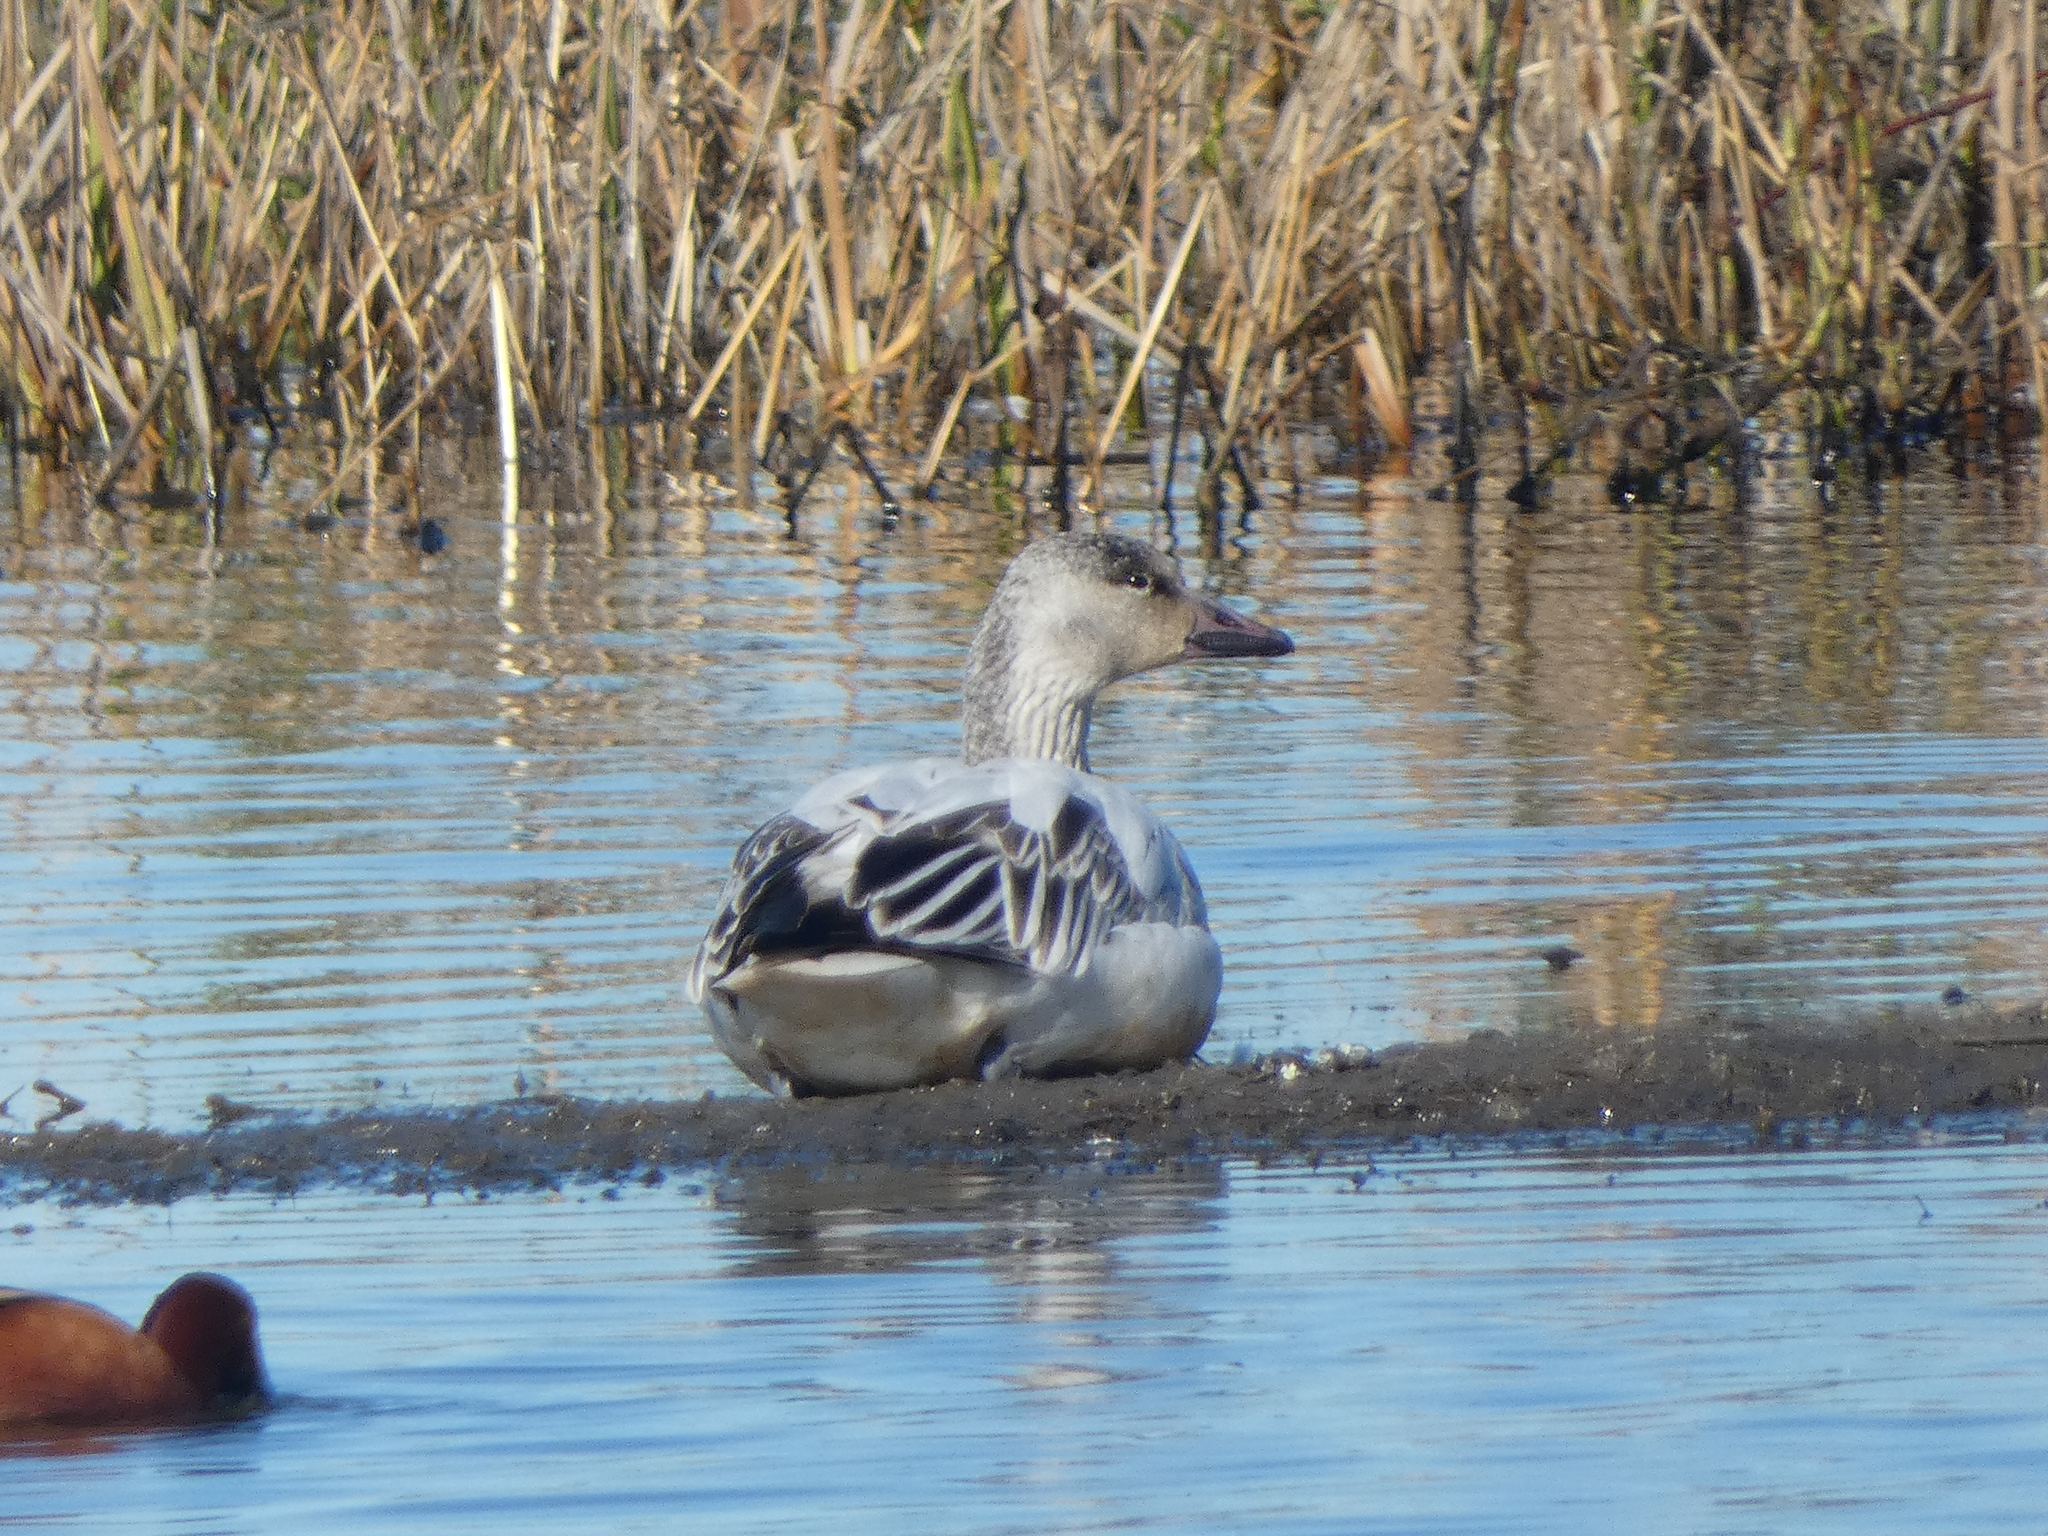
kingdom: Animalia
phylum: Chordata
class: Aves
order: Anseriformes
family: Anatidae
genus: Anser
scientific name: Anser caerulescens
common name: Snow goose
